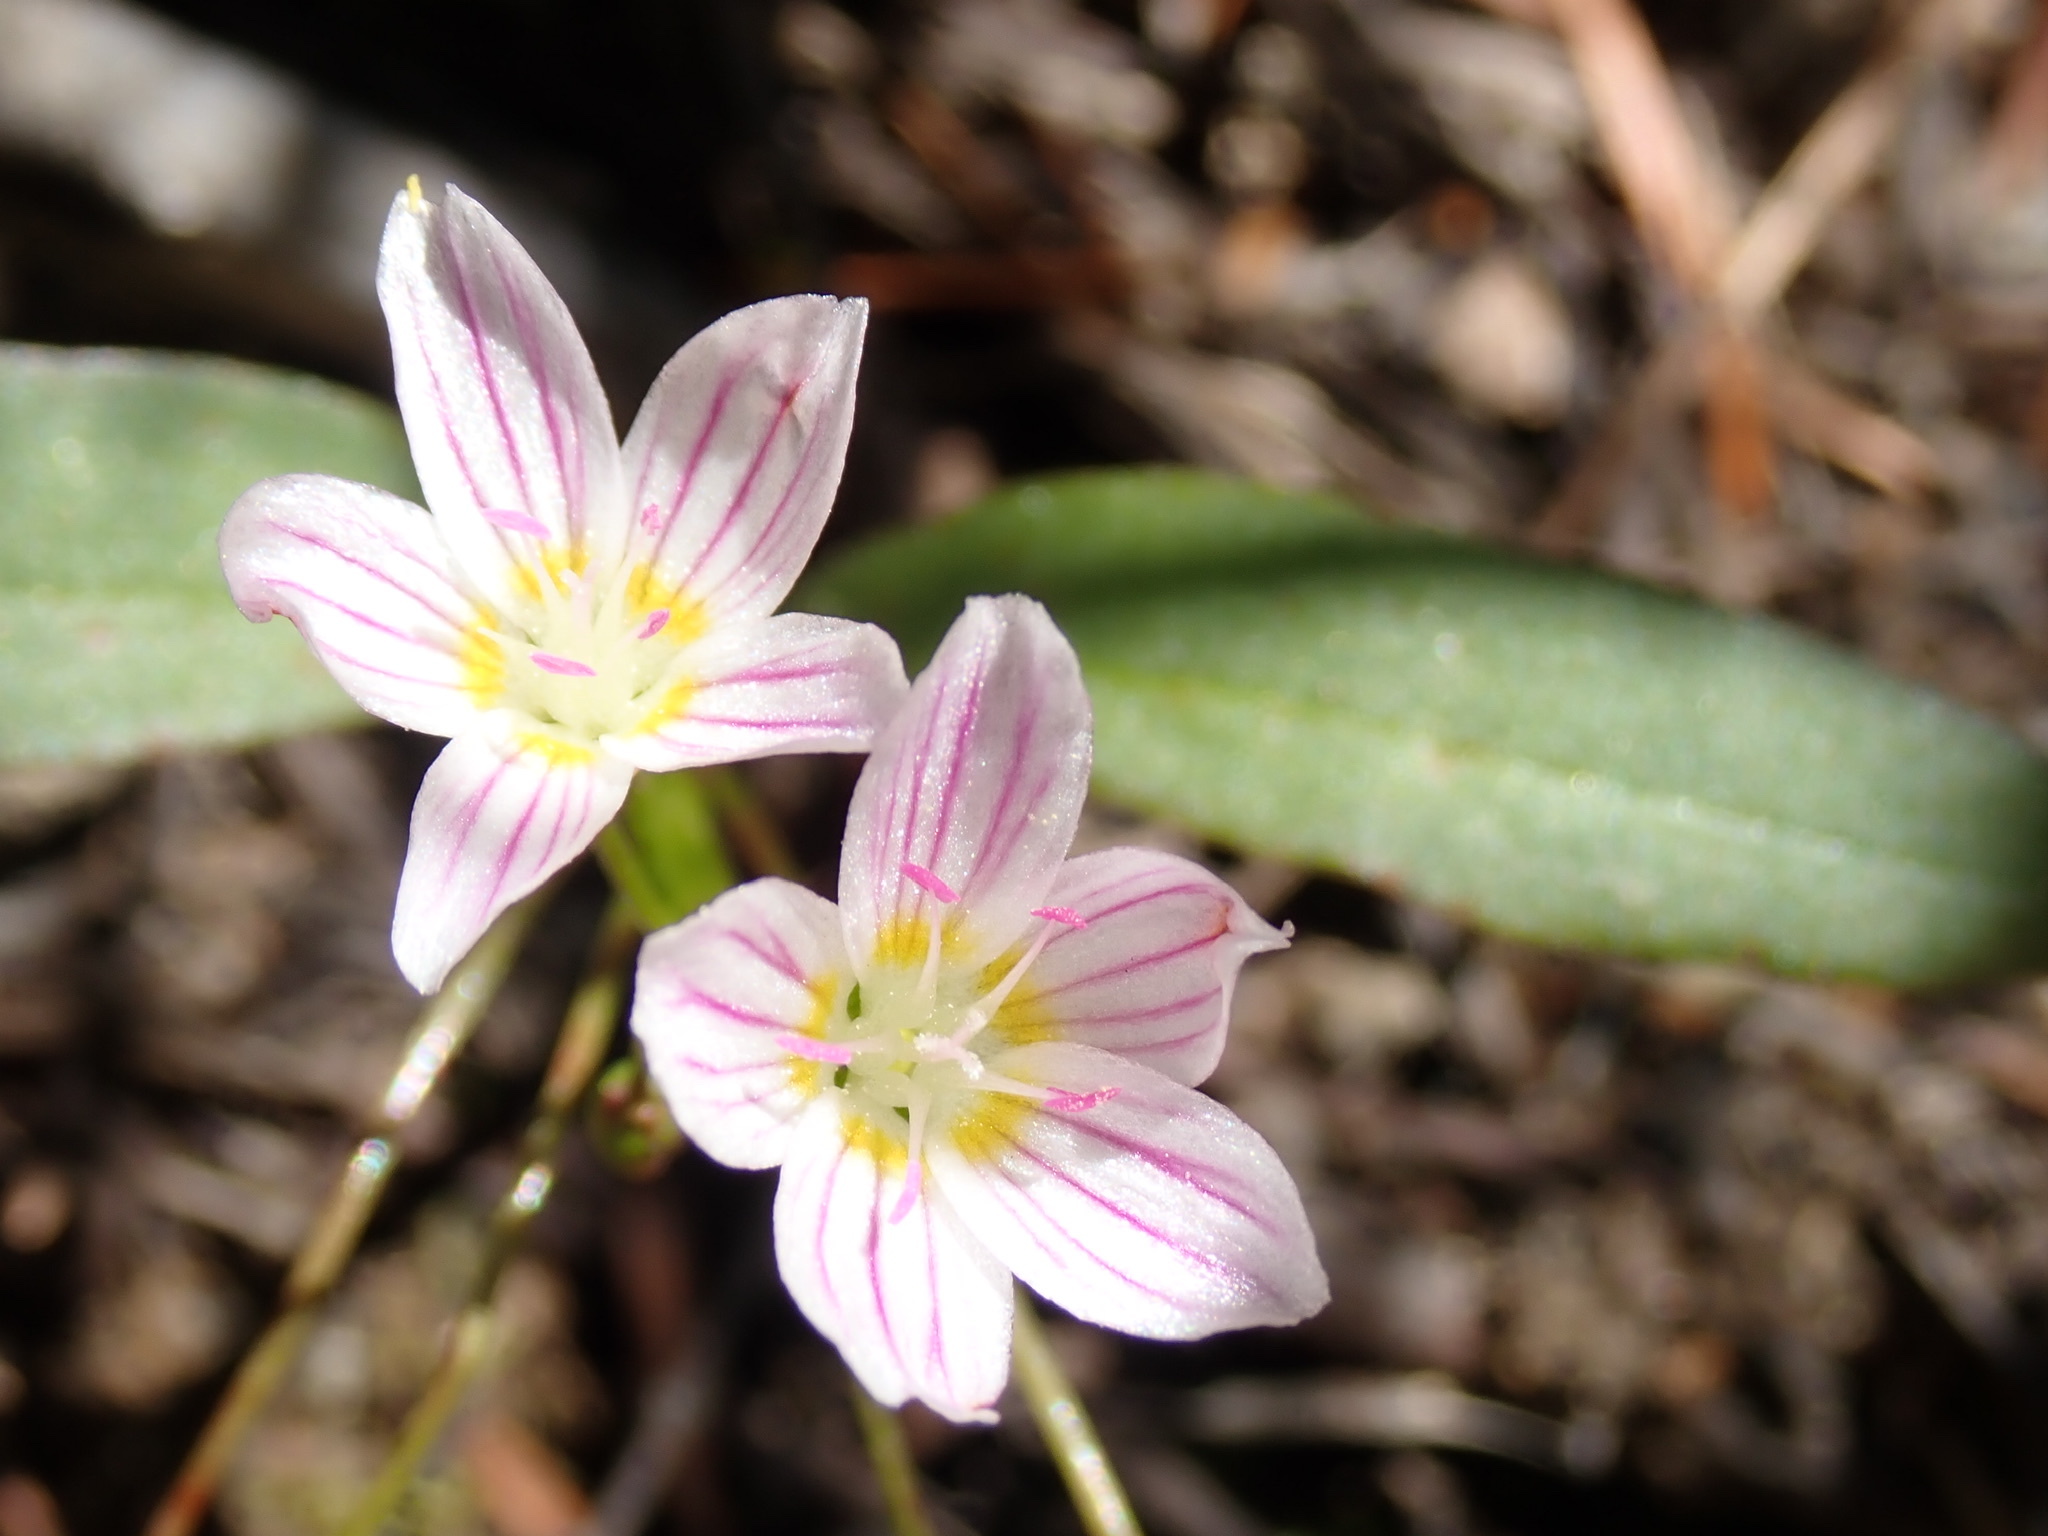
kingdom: Plantae
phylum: Tracheophyta
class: Magnoliopsida
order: Caryophyllales
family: Montiaceae
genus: Claytonia
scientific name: Claytonia lanceolata
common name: Western spring-beauty
